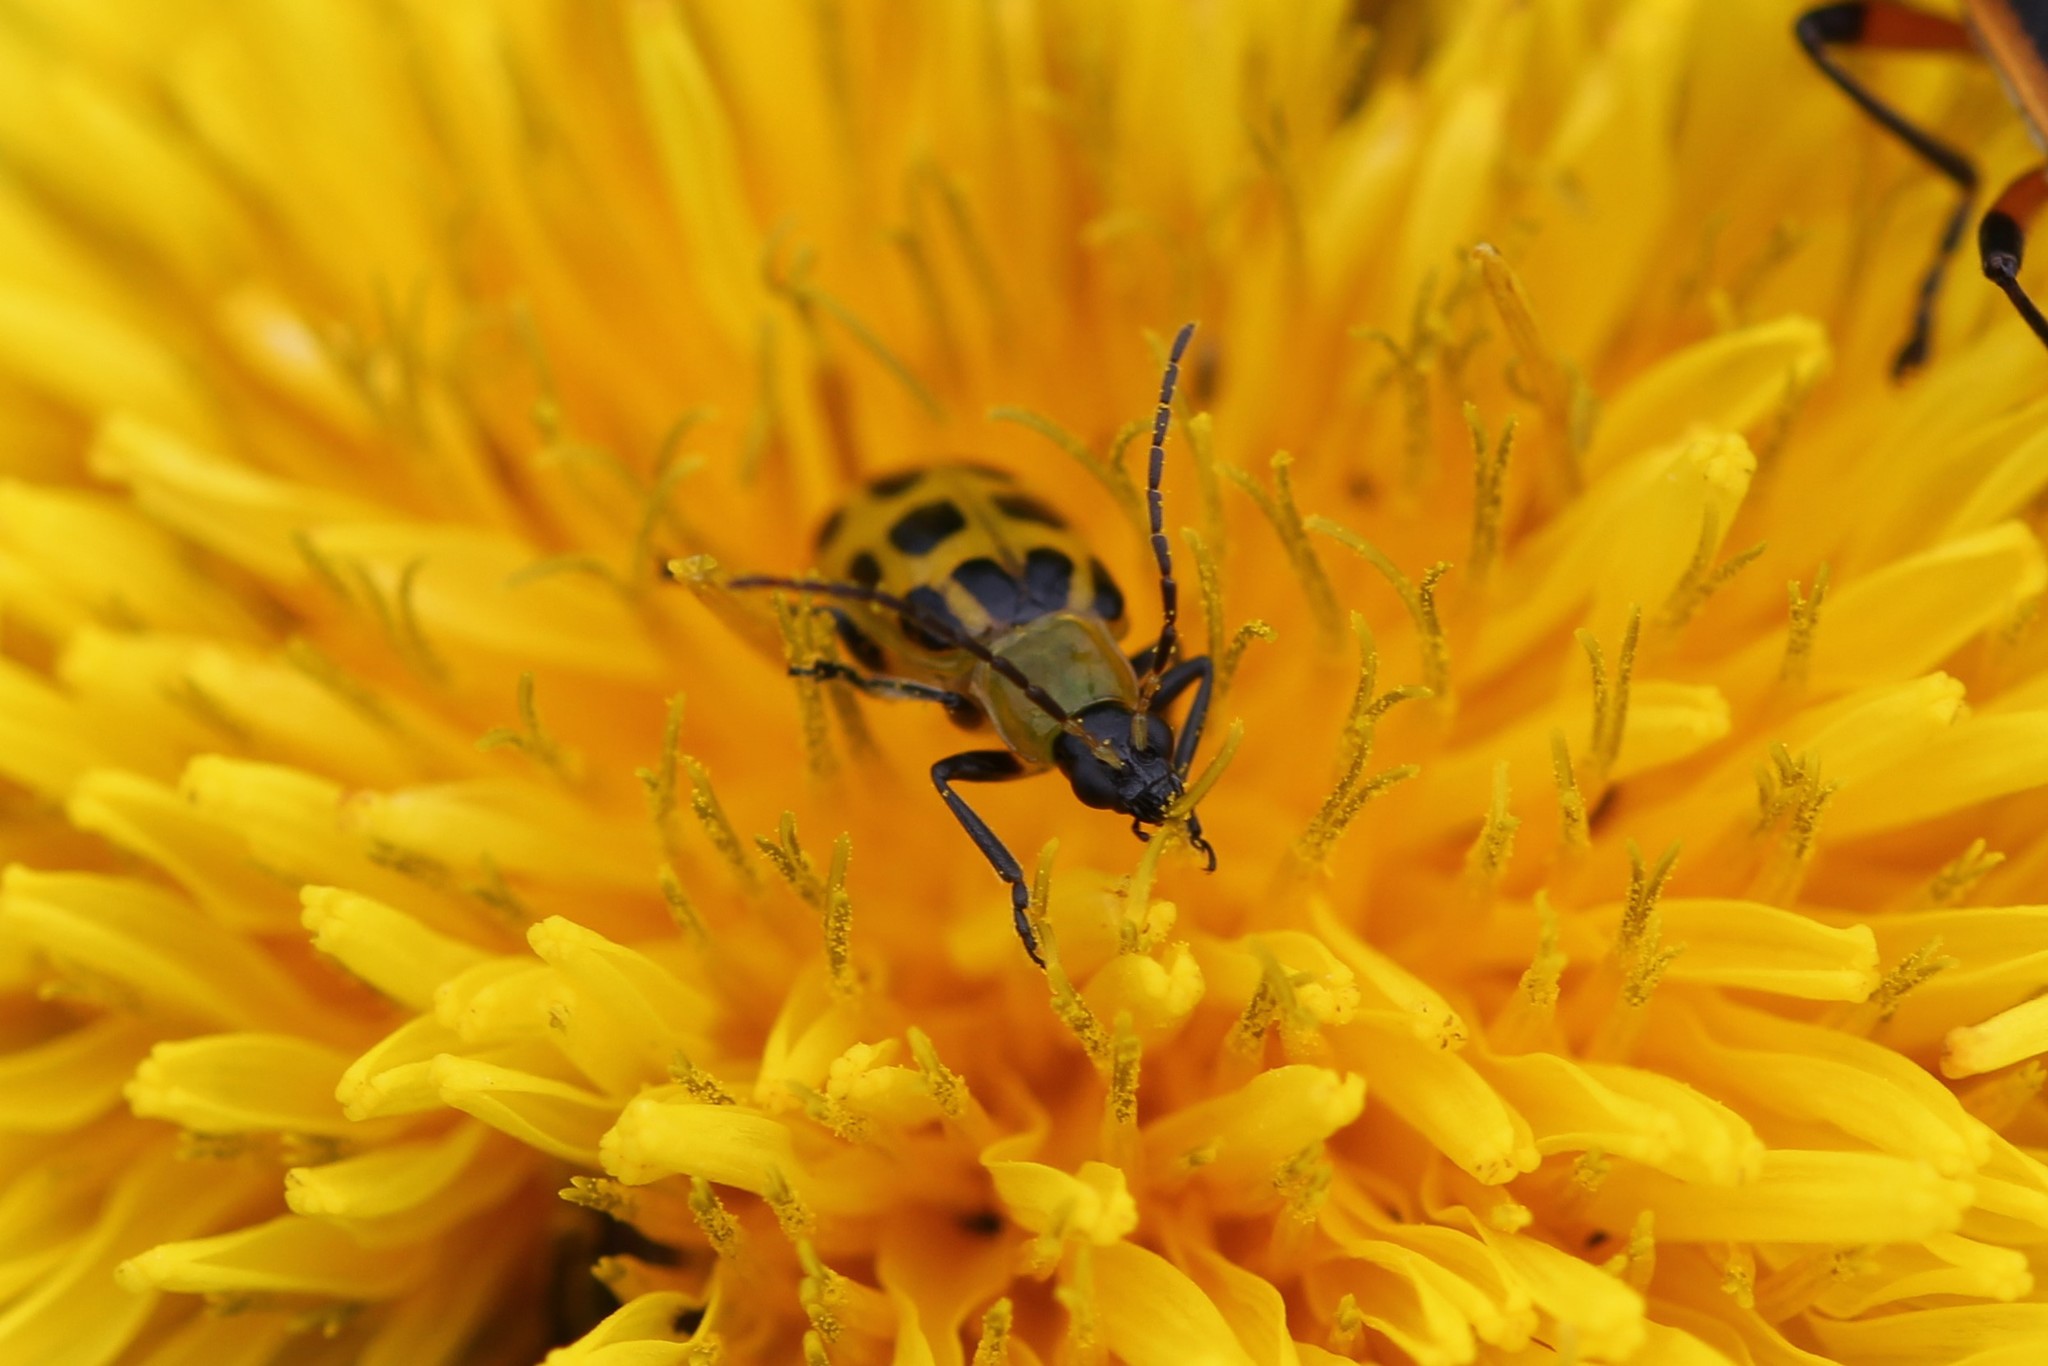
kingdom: Animalia
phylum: Arthropoda
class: Insecta
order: Coleoptera
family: Chrysomelidae
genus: Diabrotica
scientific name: Diabrotica undecimpunctata
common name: Spotted cucumber beetle
